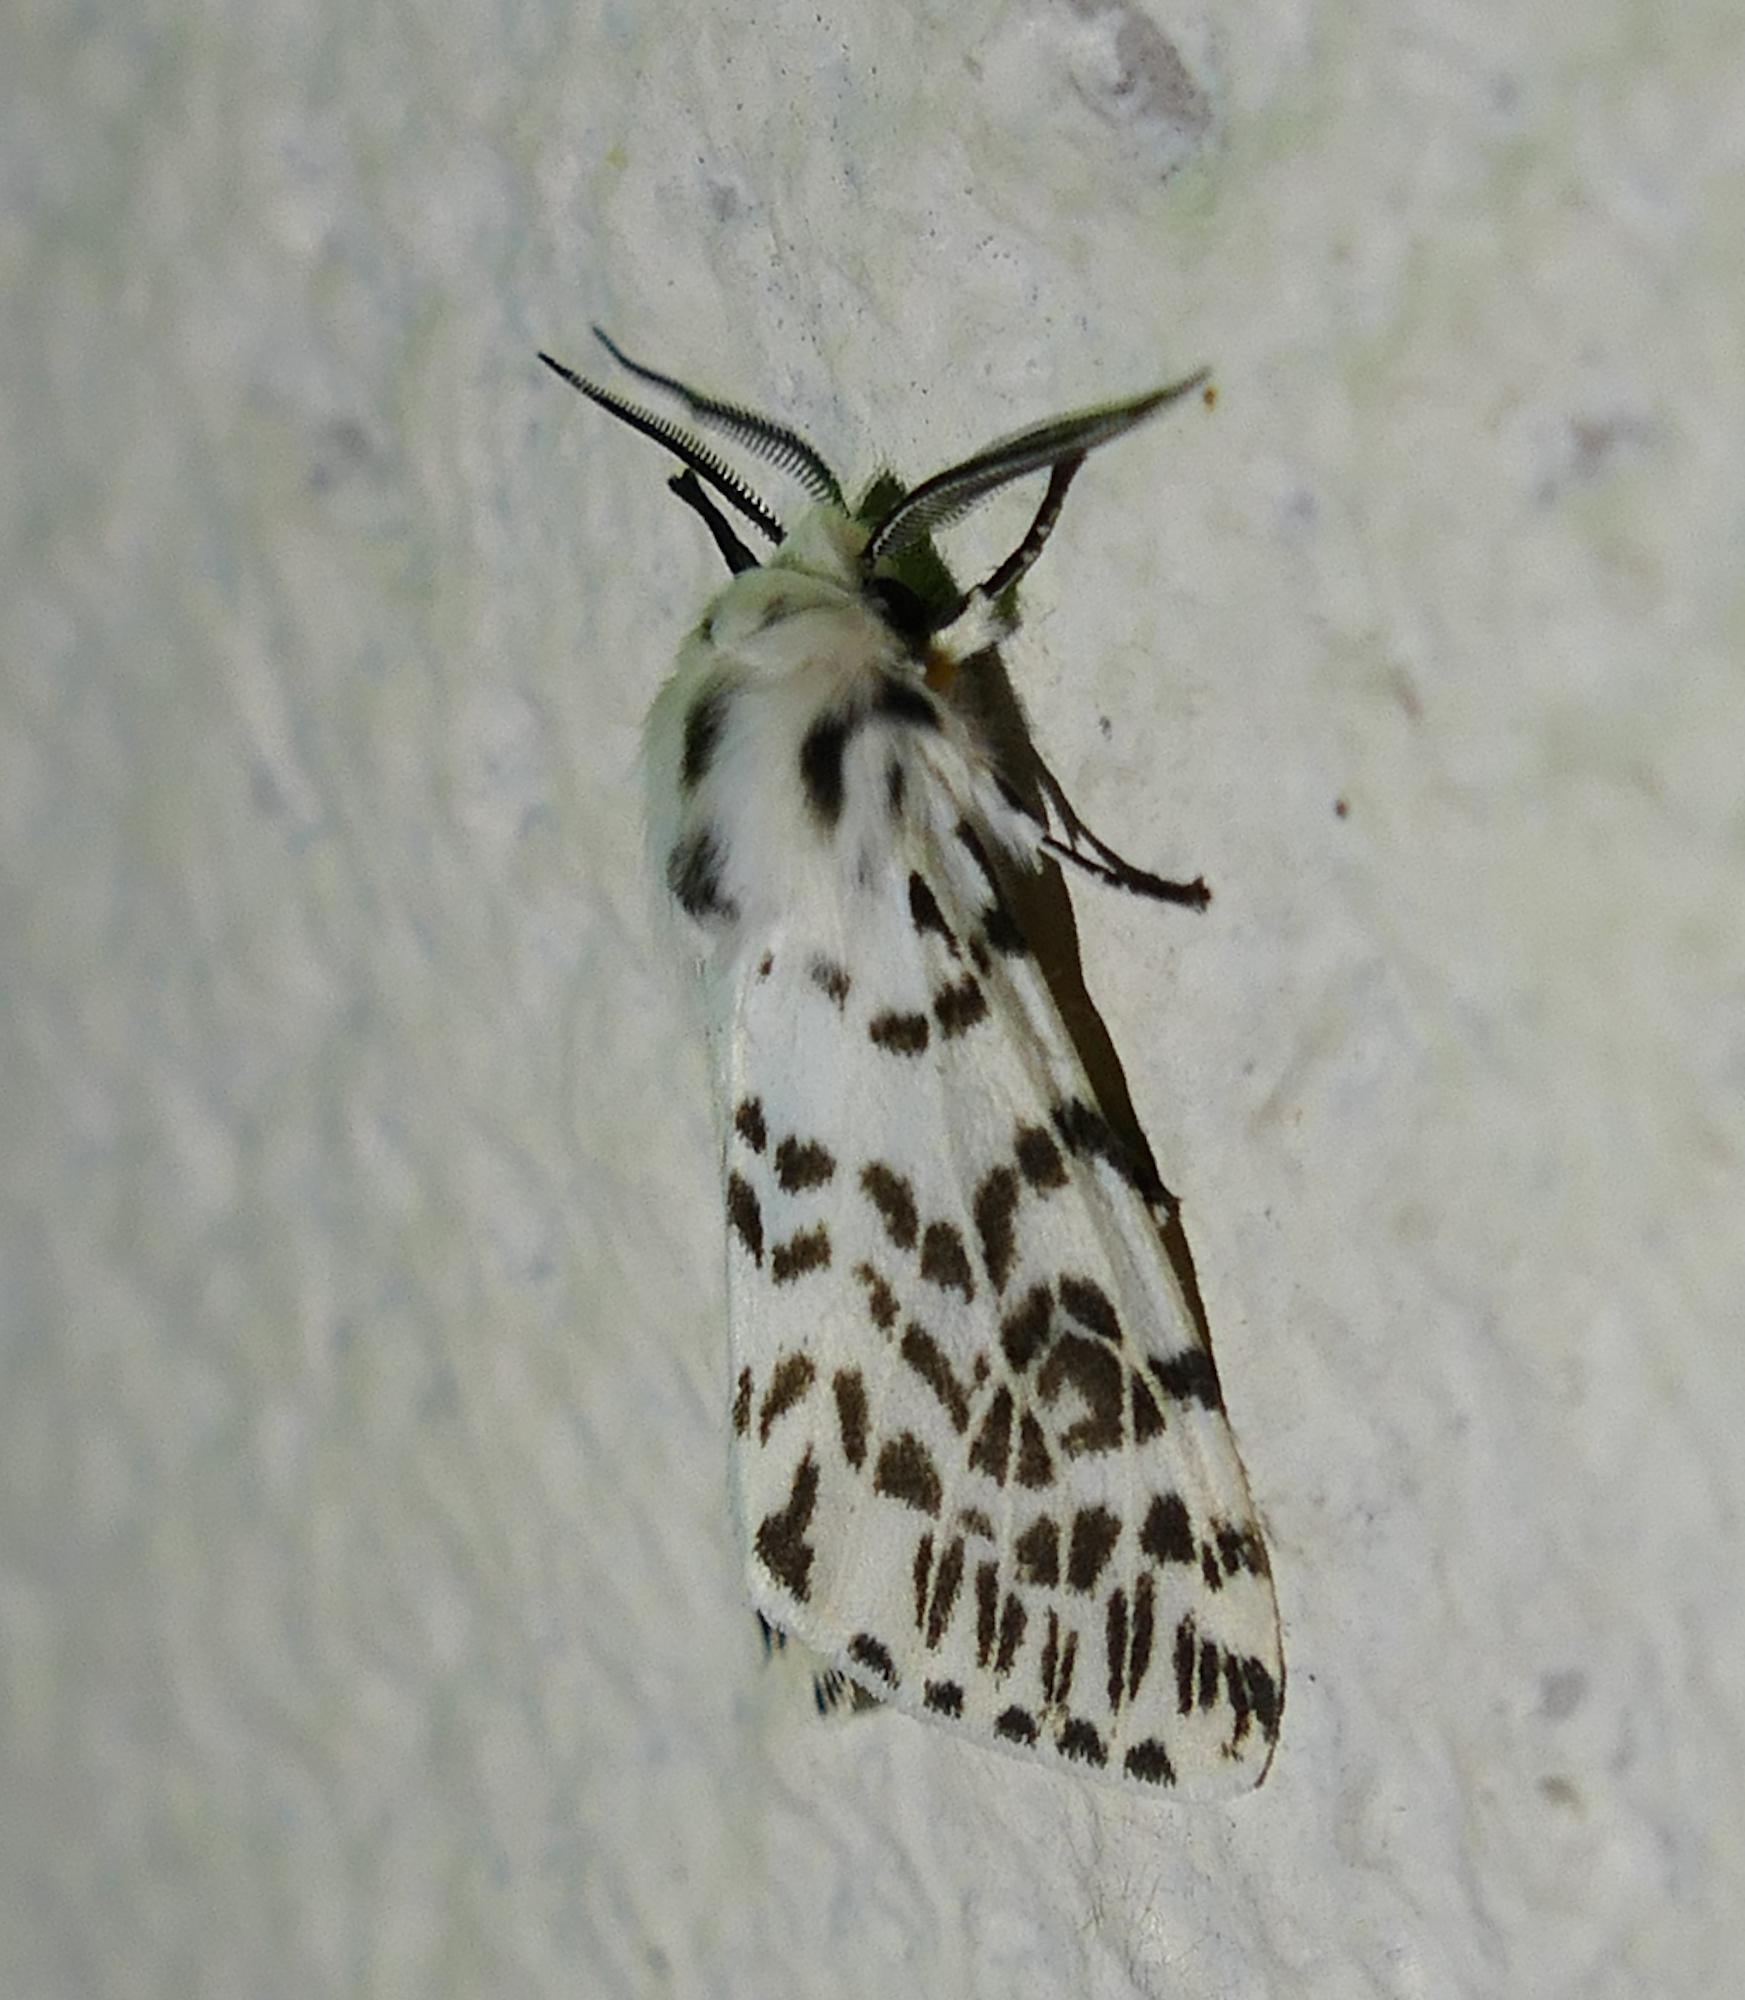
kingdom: Animalia
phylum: Arthropoda
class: Insecta
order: Lepidoptera
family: Erebidae
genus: Hyphantria
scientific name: Hyphantria cunea
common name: American white moth
